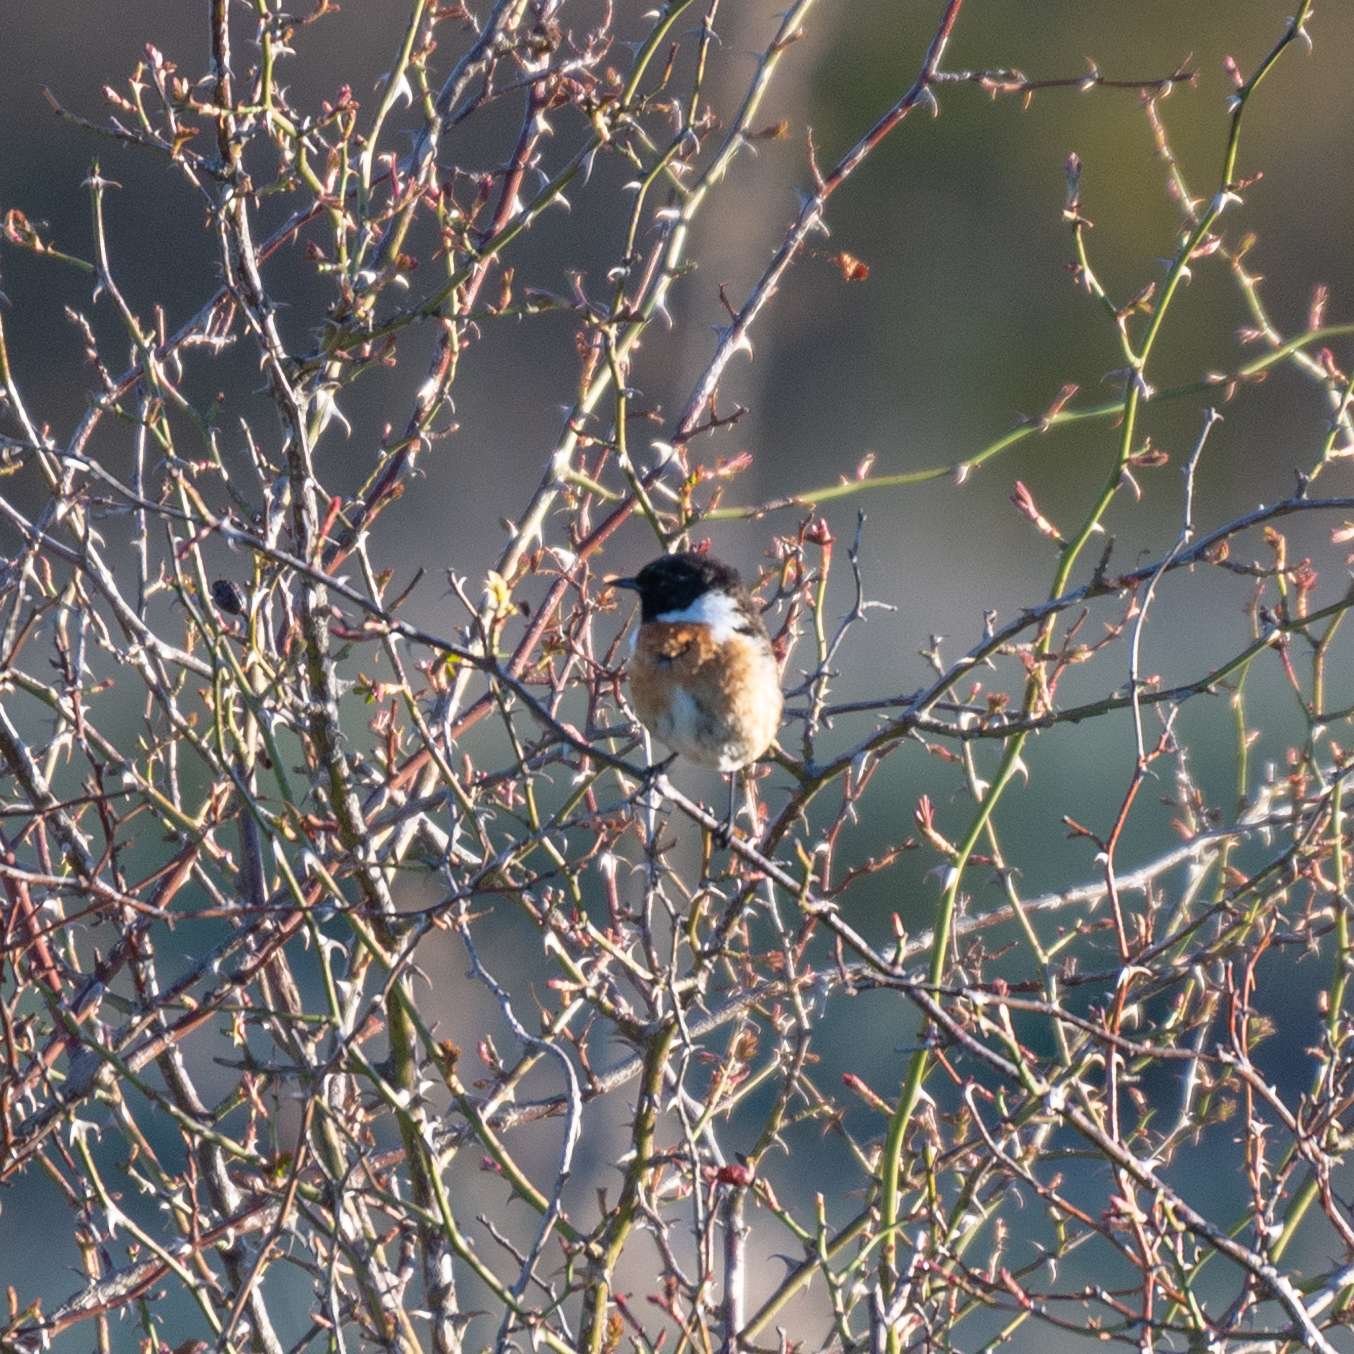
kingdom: Animalia
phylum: Chordata
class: Aves
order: Passeriformes
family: Muscicapidae
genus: Saxicola
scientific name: Saxicola rubicola
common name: European stonechat
